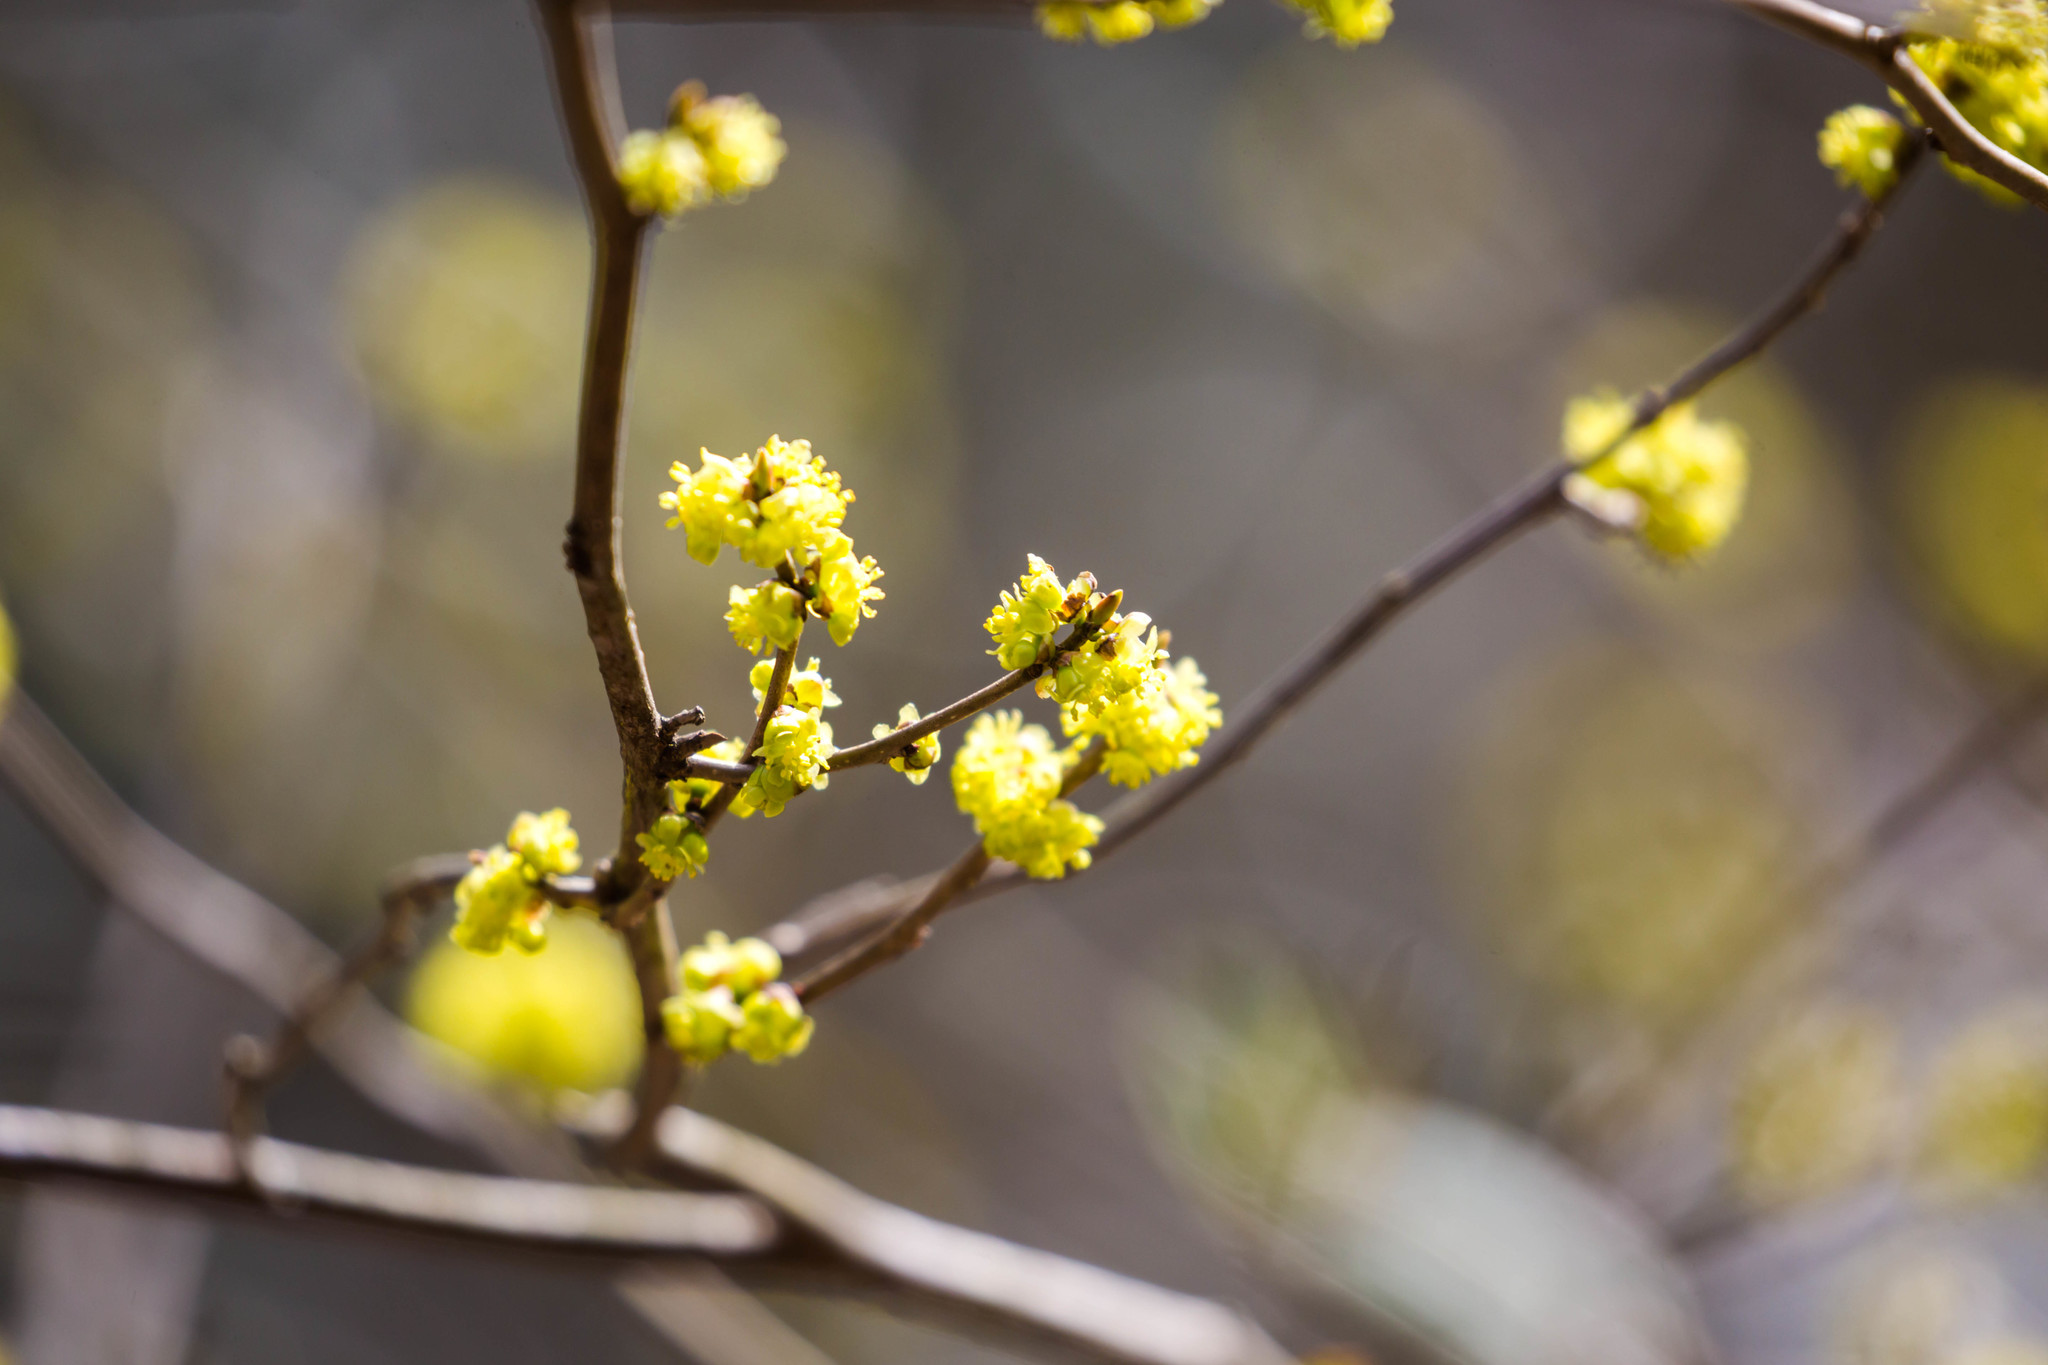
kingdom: Plantae
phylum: Tracheophyta
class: Magnoliopsida
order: Laurales
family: Lauraceae
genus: Lindera
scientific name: Lindera benzoin
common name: Spicebush
